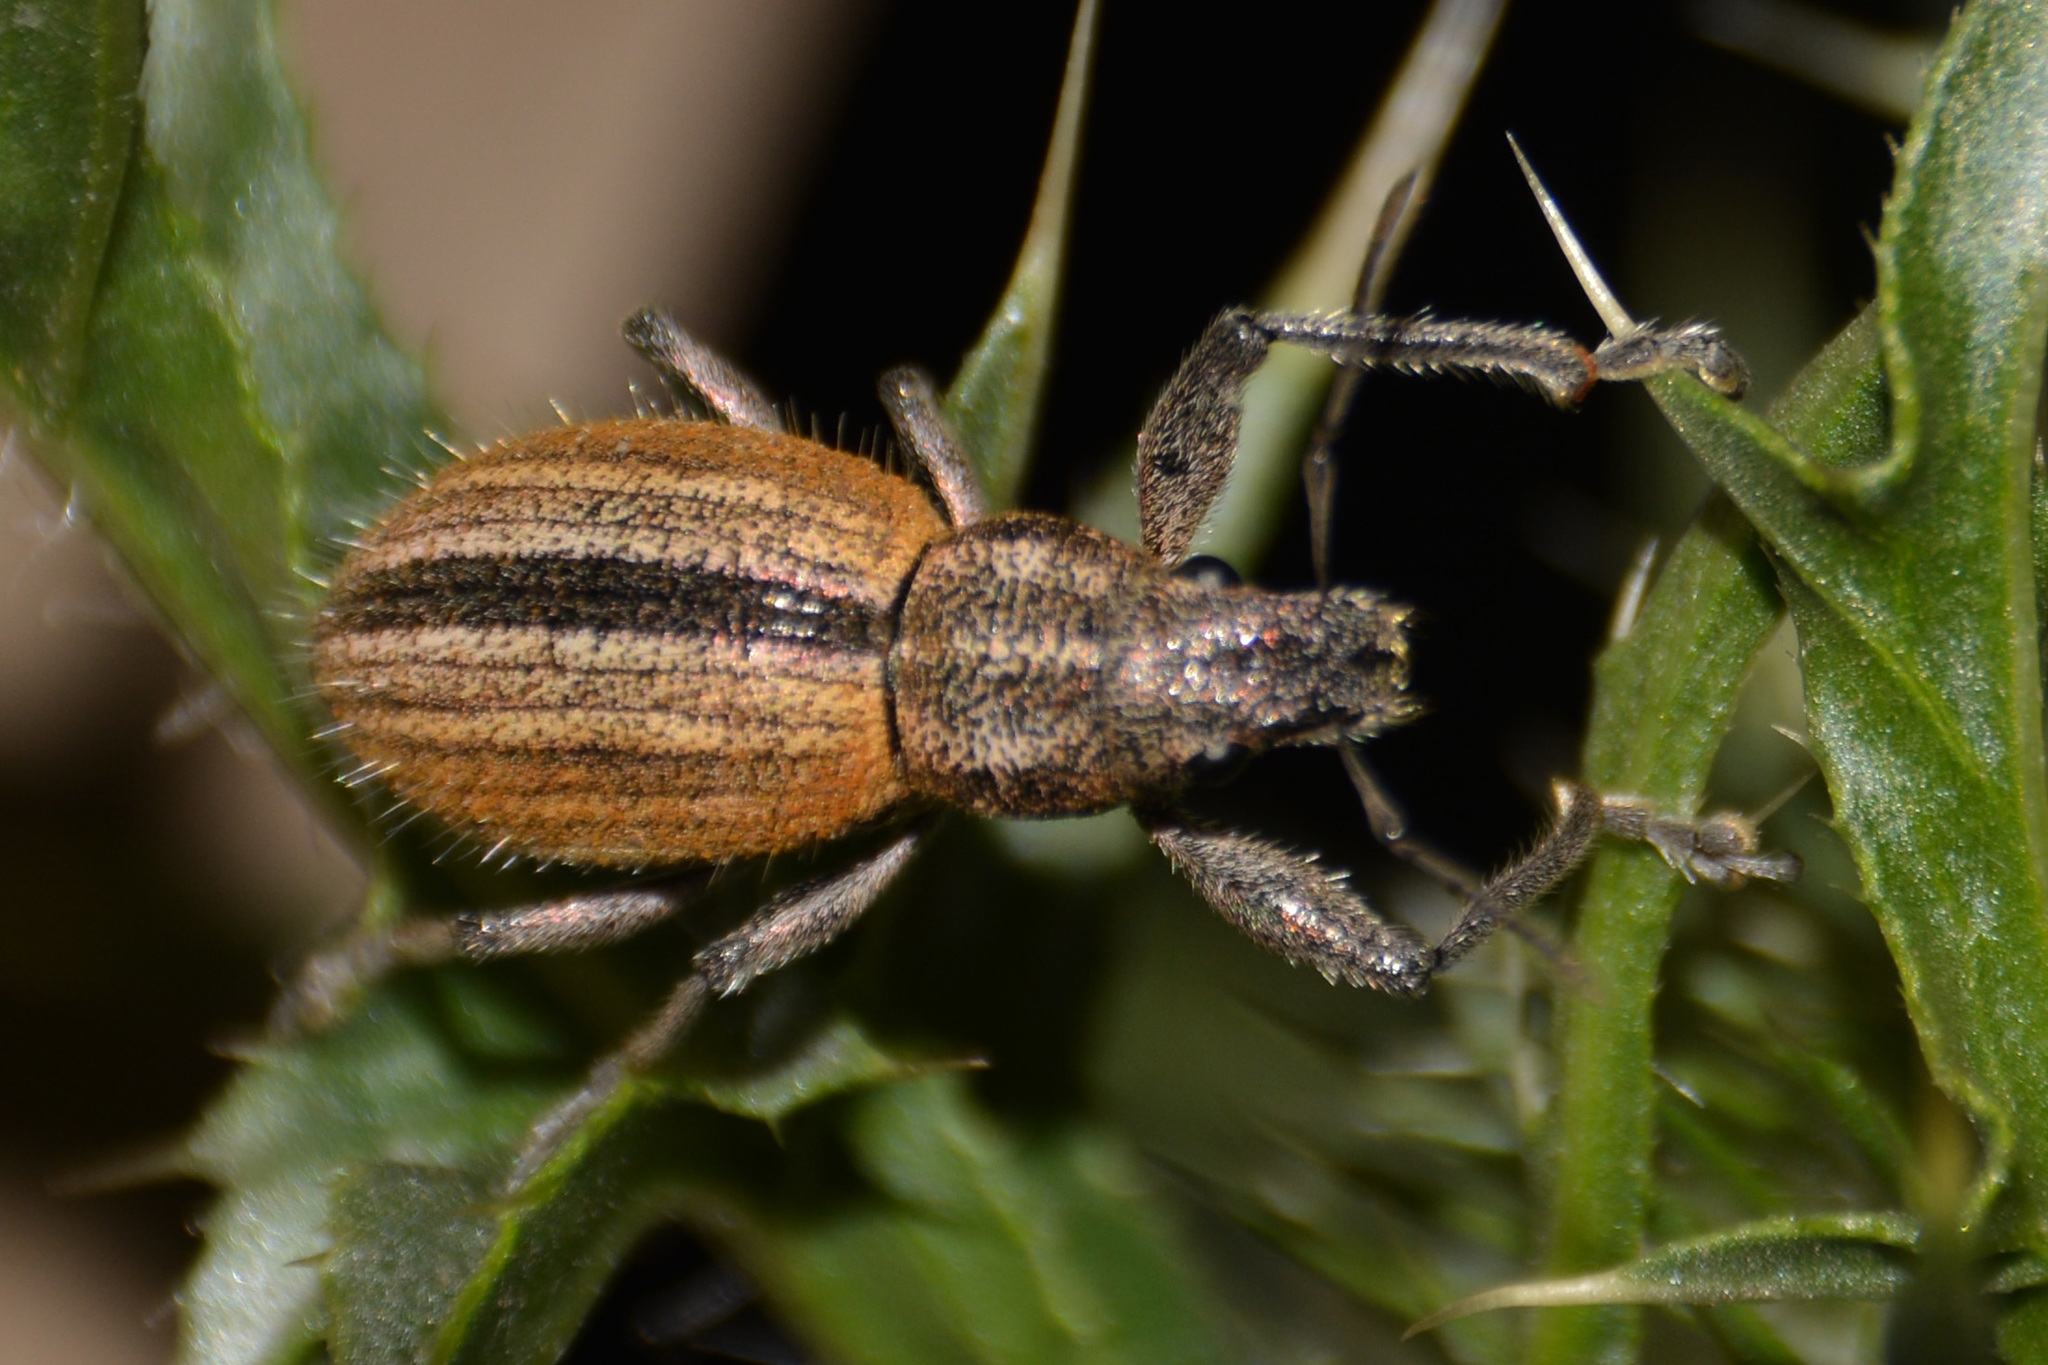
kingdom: Animalia
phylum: Arthropoda
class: Insecta
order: Coleoptera
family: Curculionidae
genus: Naupactus
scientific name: Naupactus verecundus
